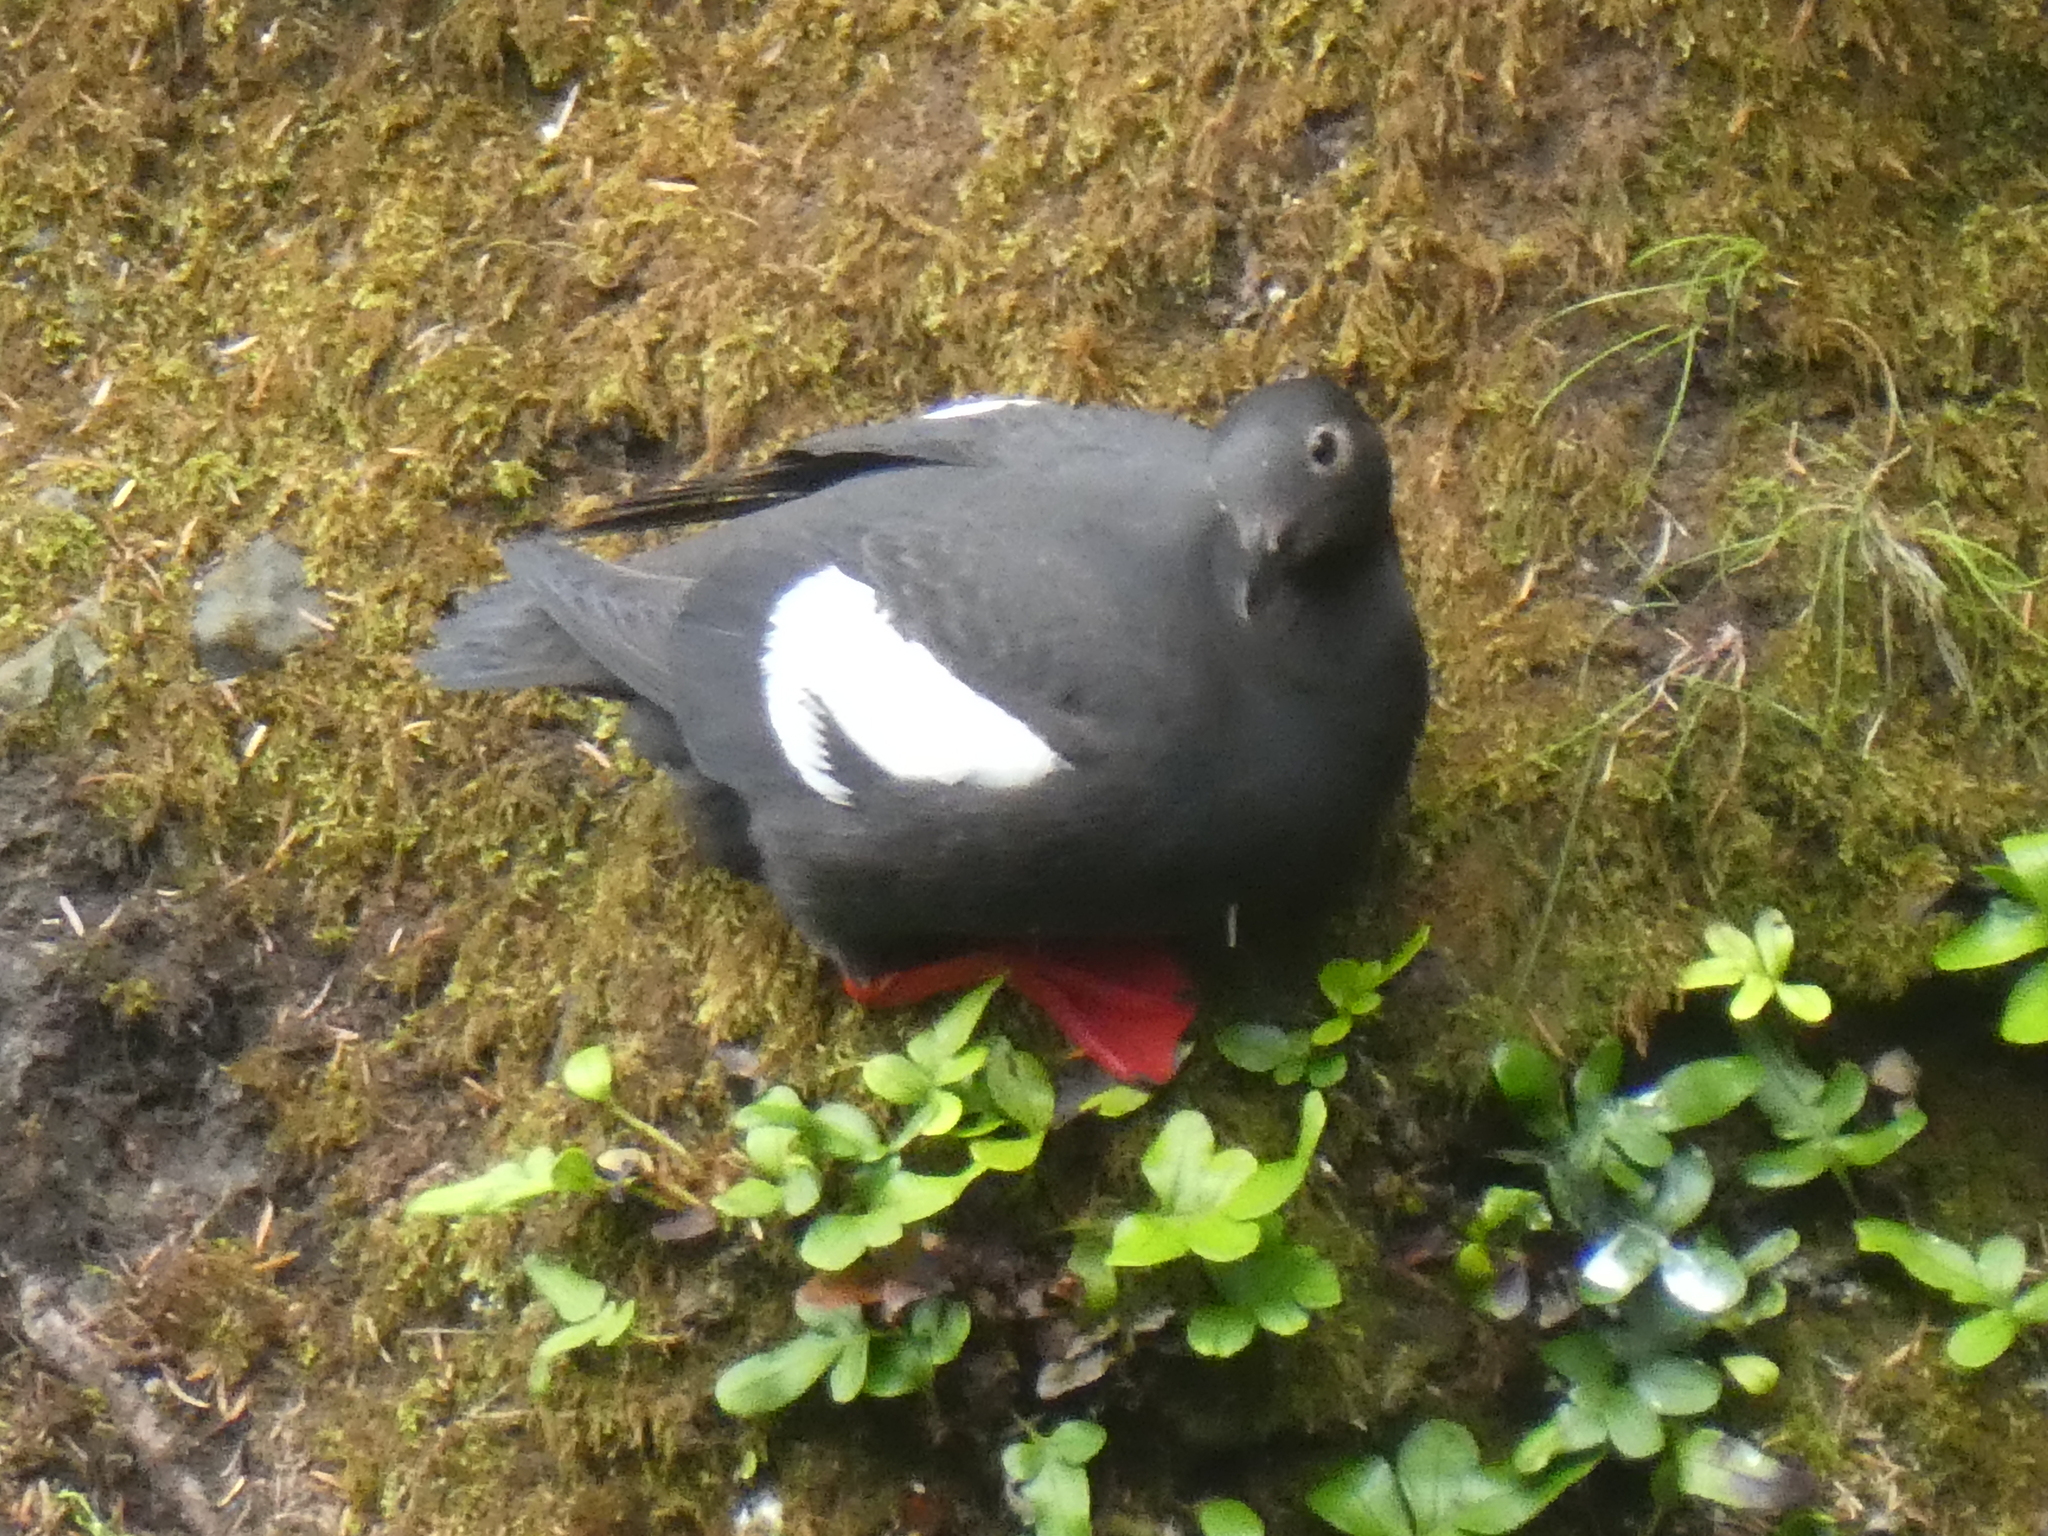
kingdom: Animalia
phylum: Chordata
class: Aves
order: Charadriiformes
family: Alcidae
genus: Cepphus
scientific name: Cepphus columba
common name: Pigeon guillemot
